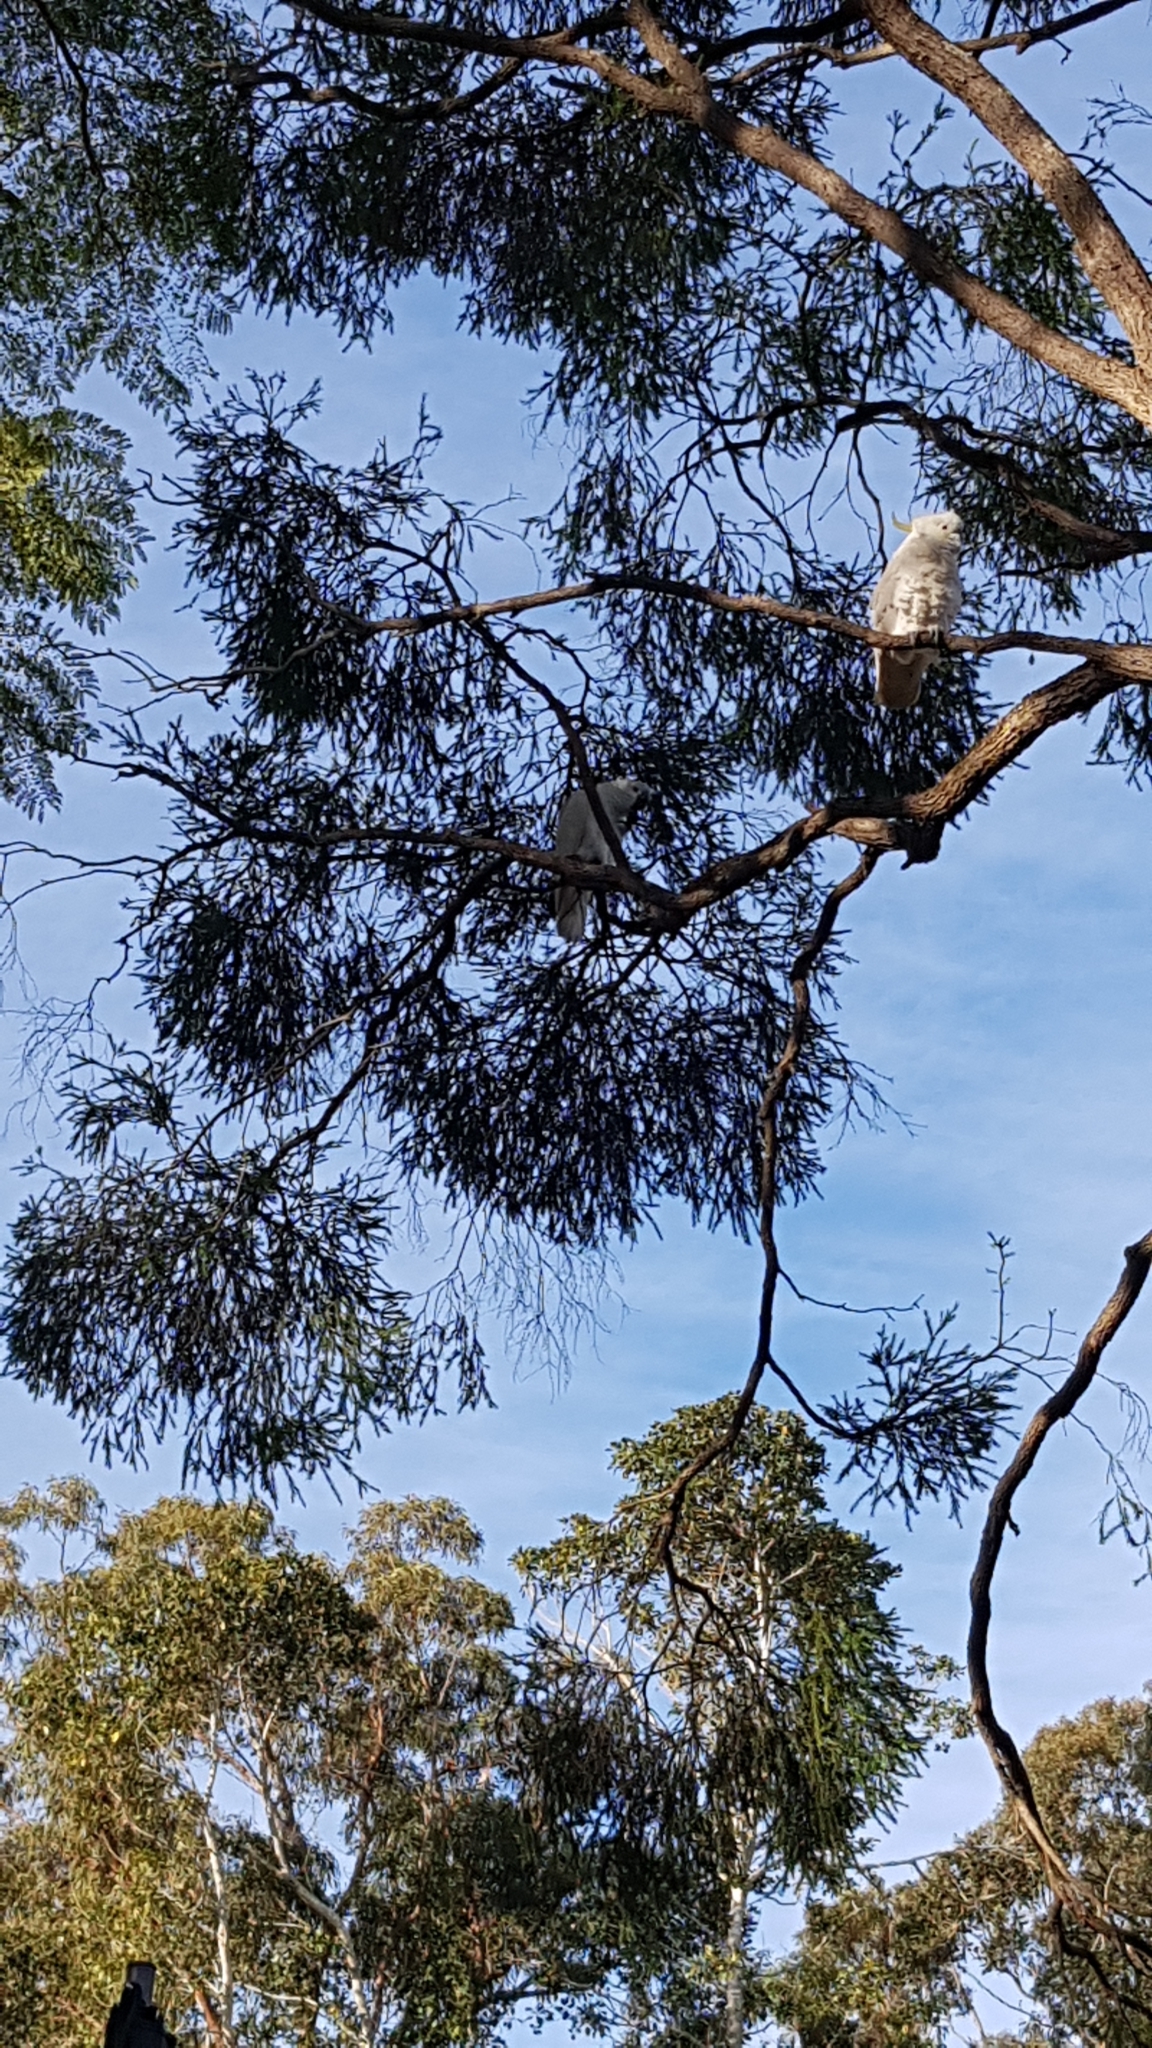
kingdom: Animalia
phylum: Chordata
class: Aves
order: Psittaciformes
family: Psittacidae
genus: Cacatua
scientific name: Cacatua galerita
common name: Sulphur-crested cockatoo
